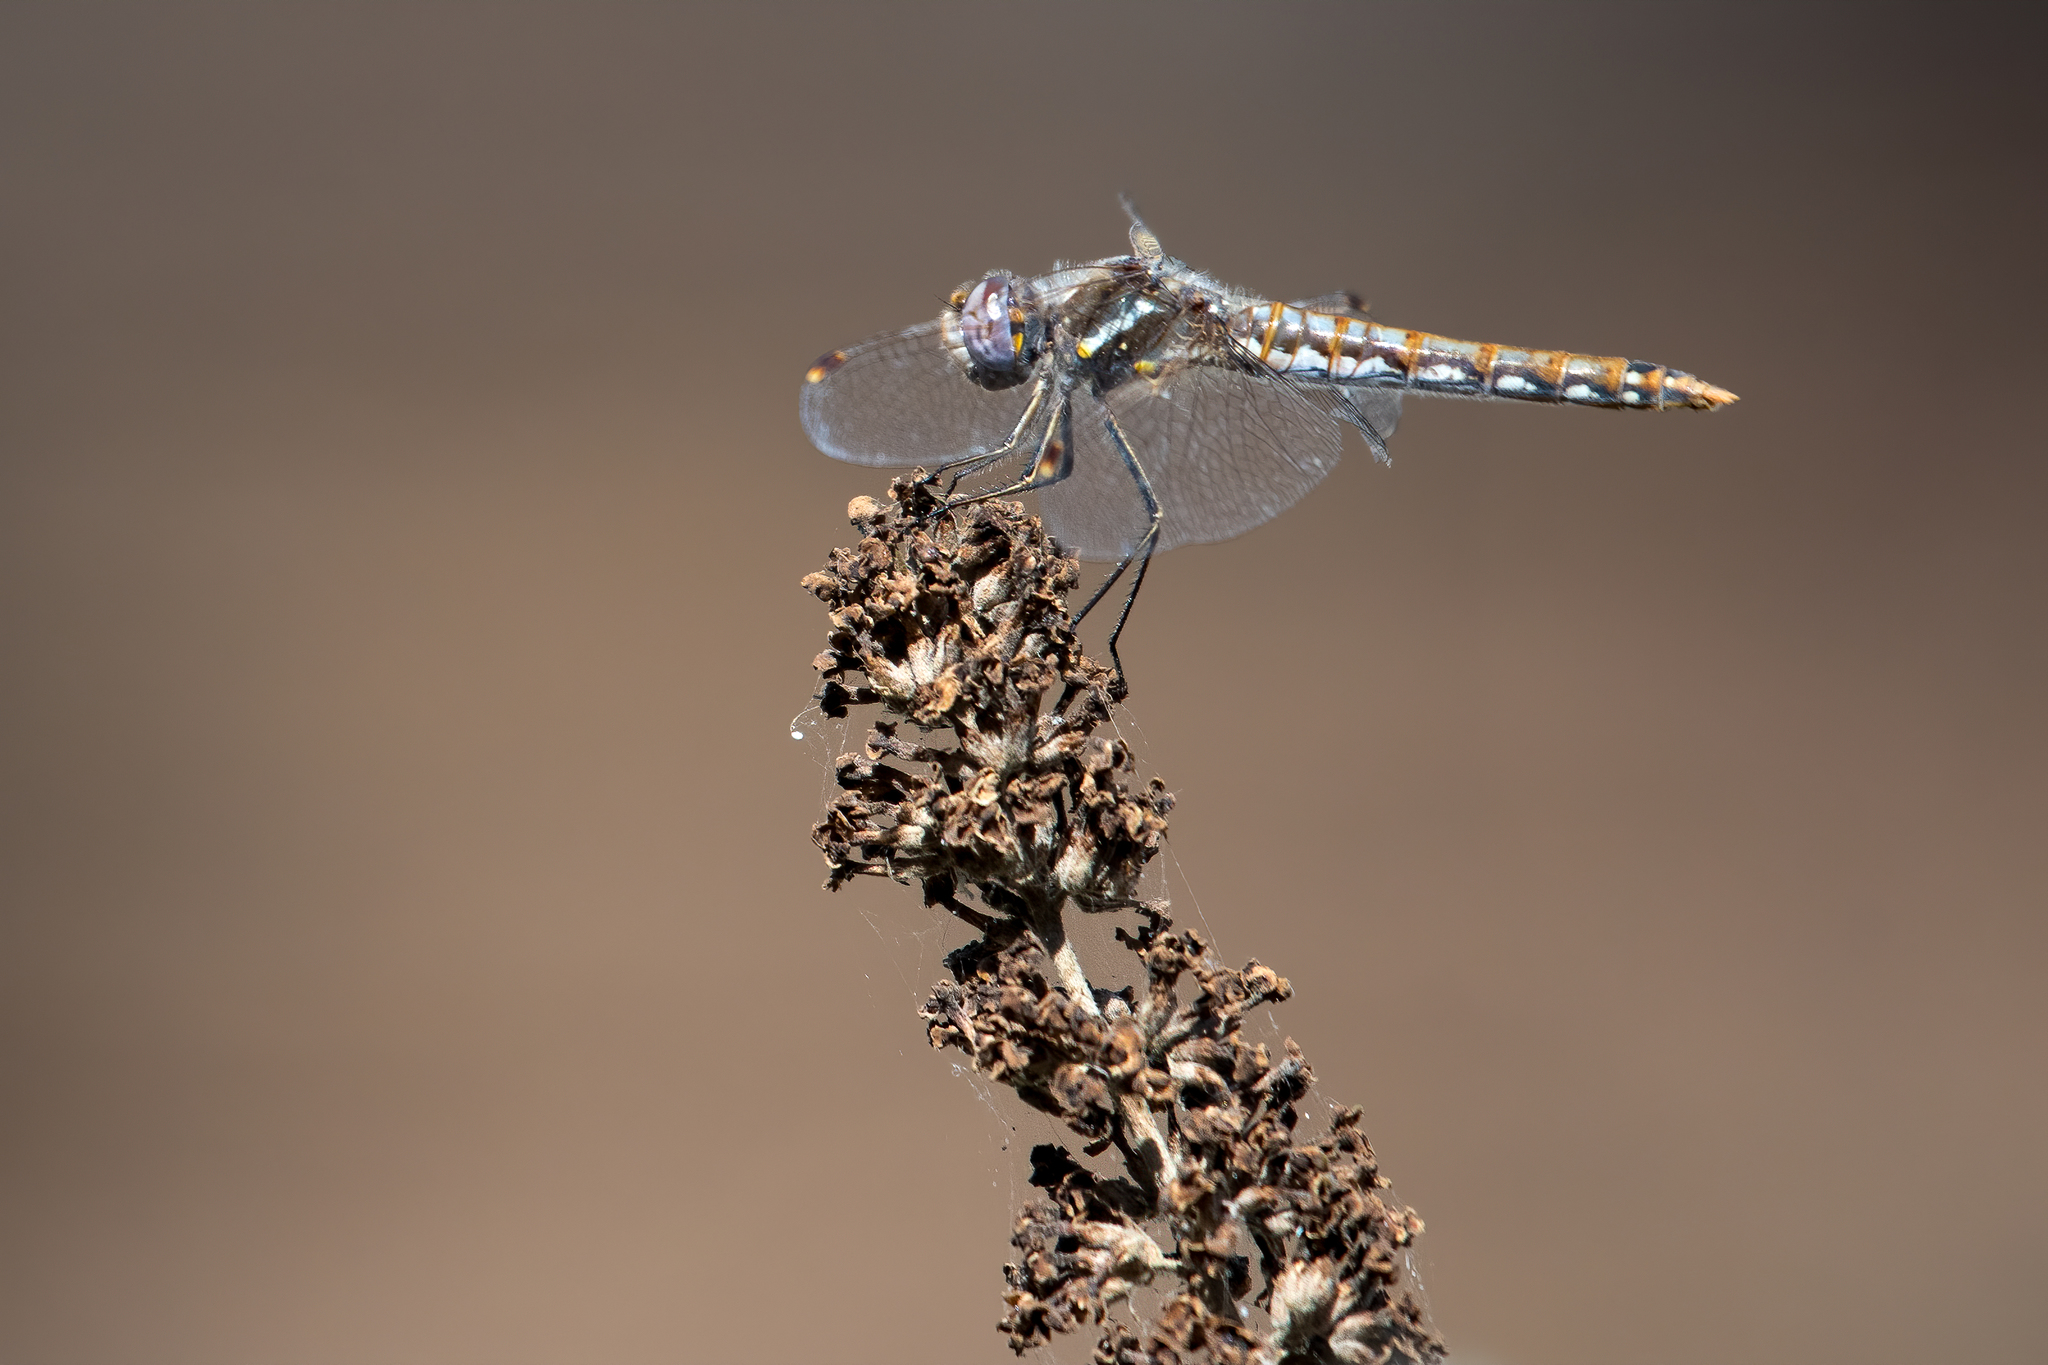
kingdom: Animalia
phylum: Arthropoda
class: Insecta
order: Odonata
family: Libellulidae
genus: Sympetrum
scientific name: Sympetrum corruptum
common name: Variegated meadowhawk
